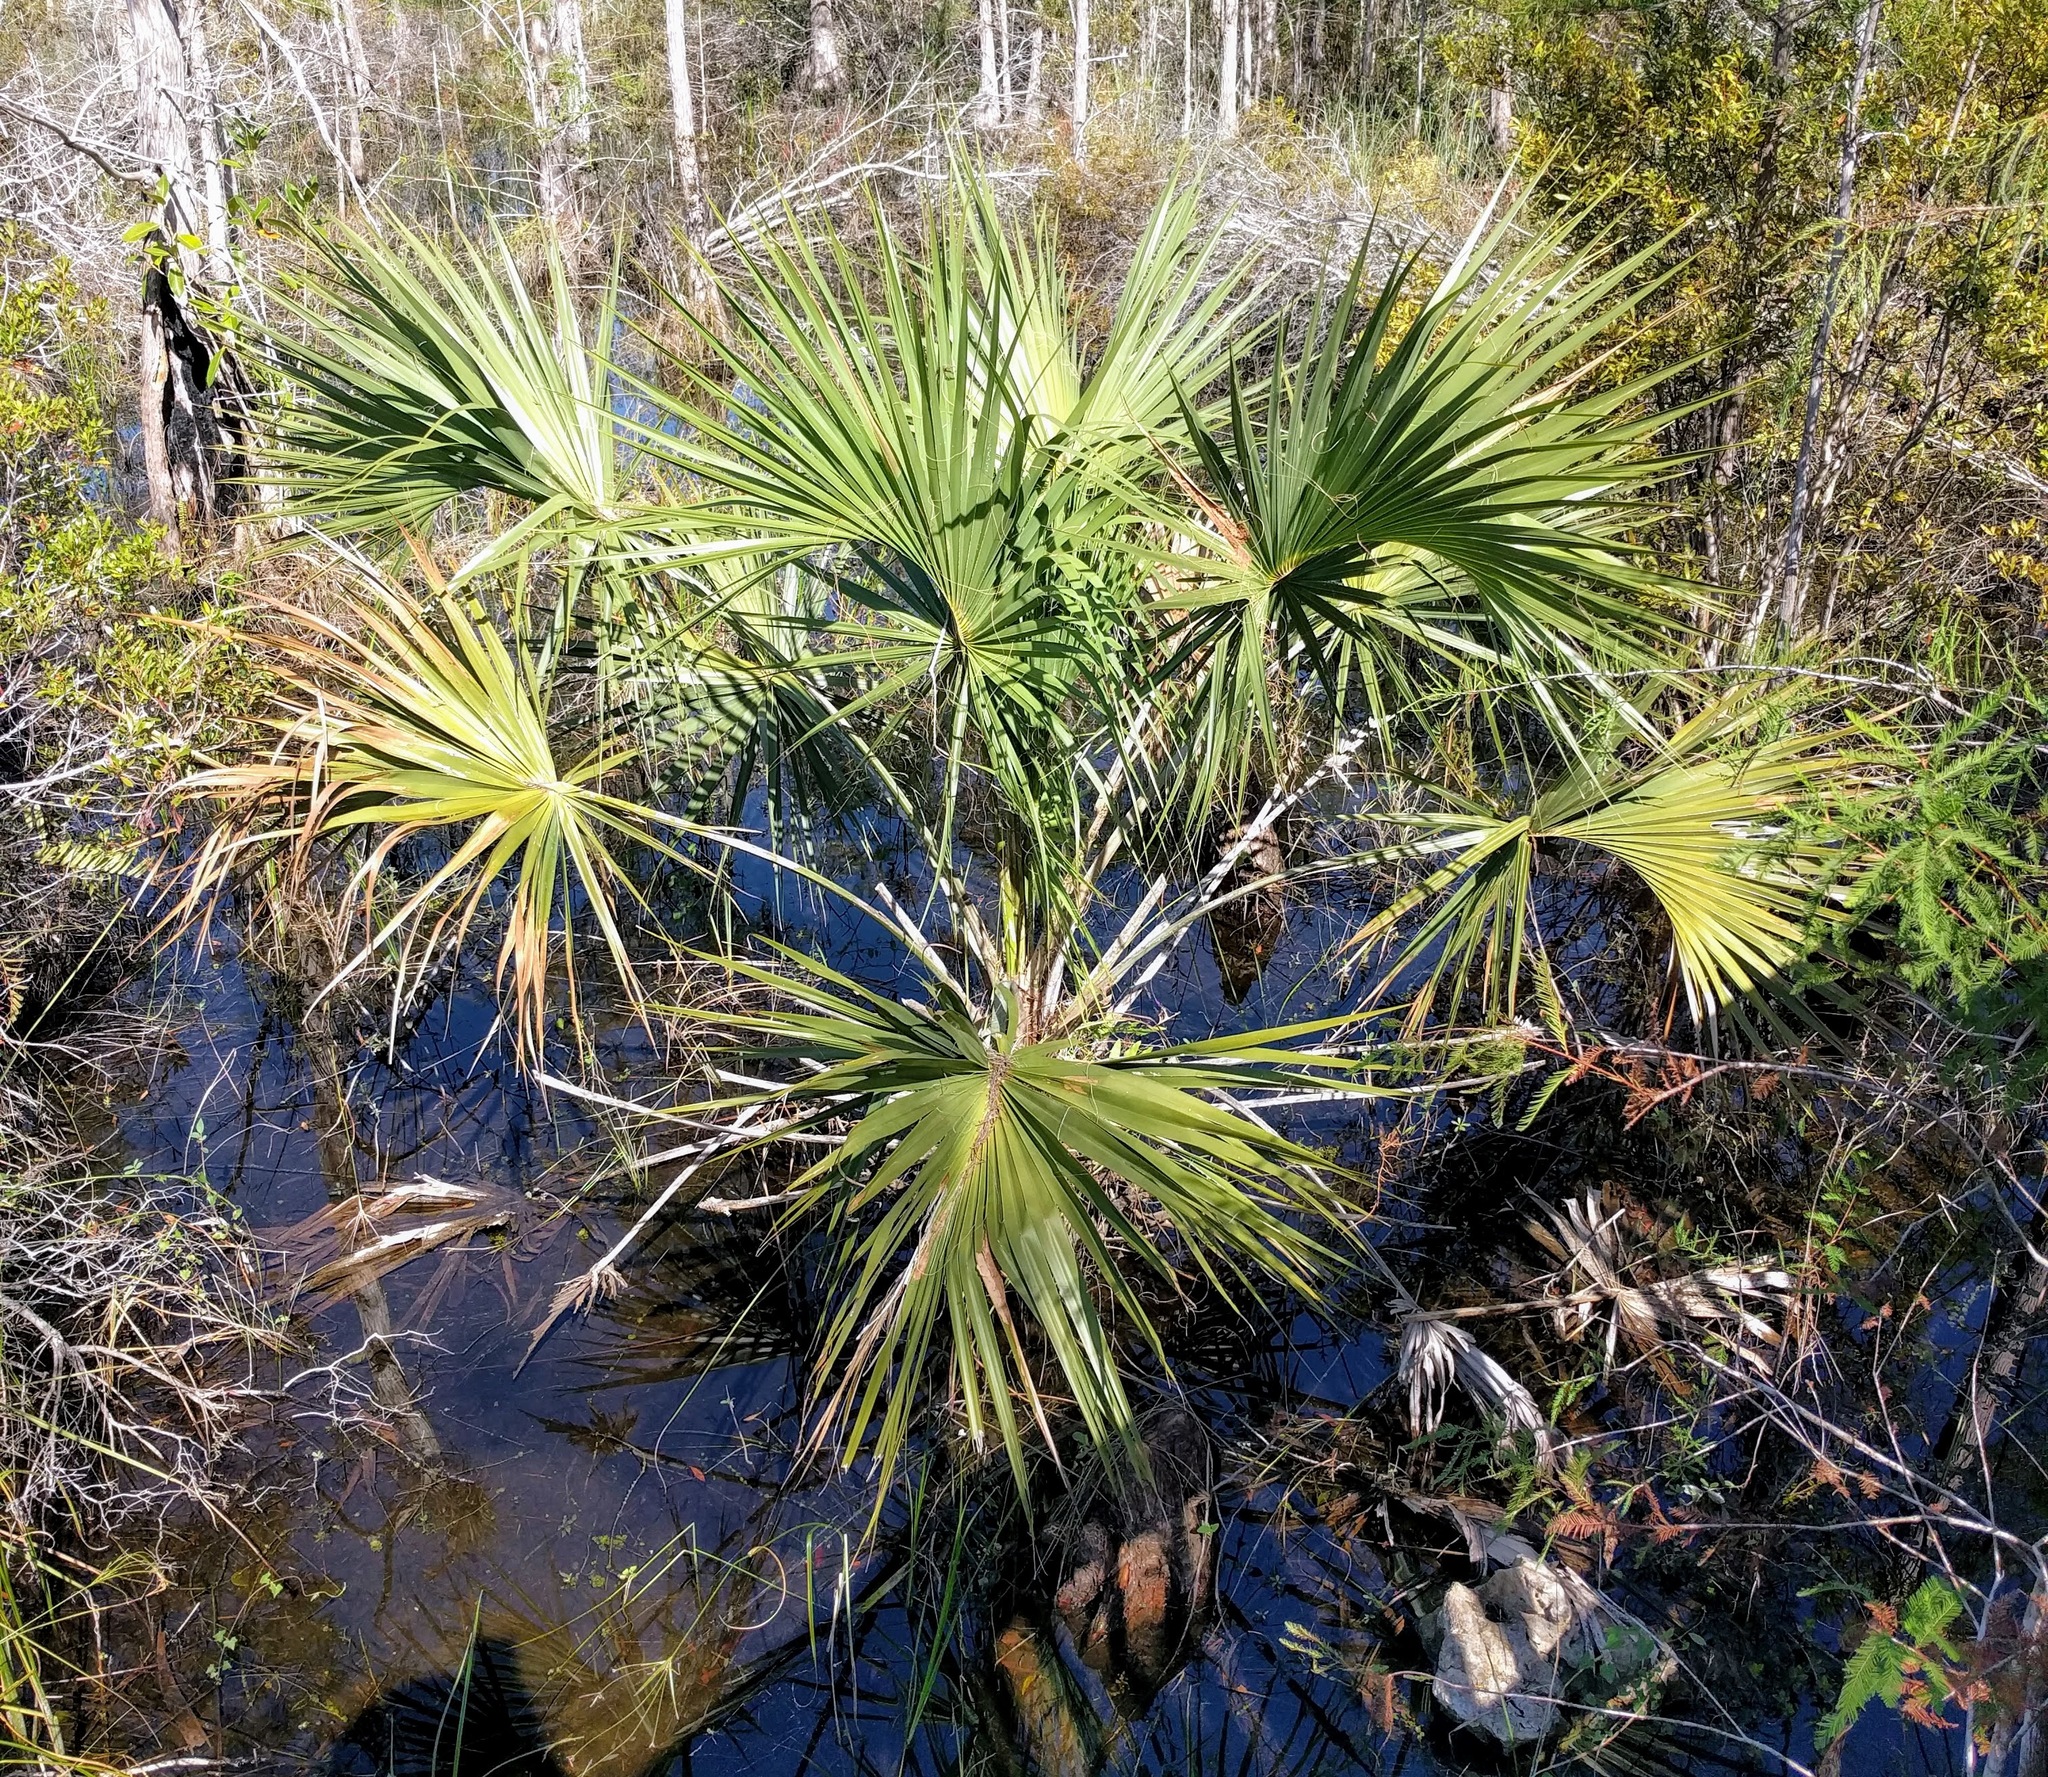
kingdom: Plantae
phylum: Tracheophyta
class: Liliopsida
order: Arecales
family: Arecaceae
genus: Sabal
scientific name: Sabal palmetto
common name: Blue palmetto
